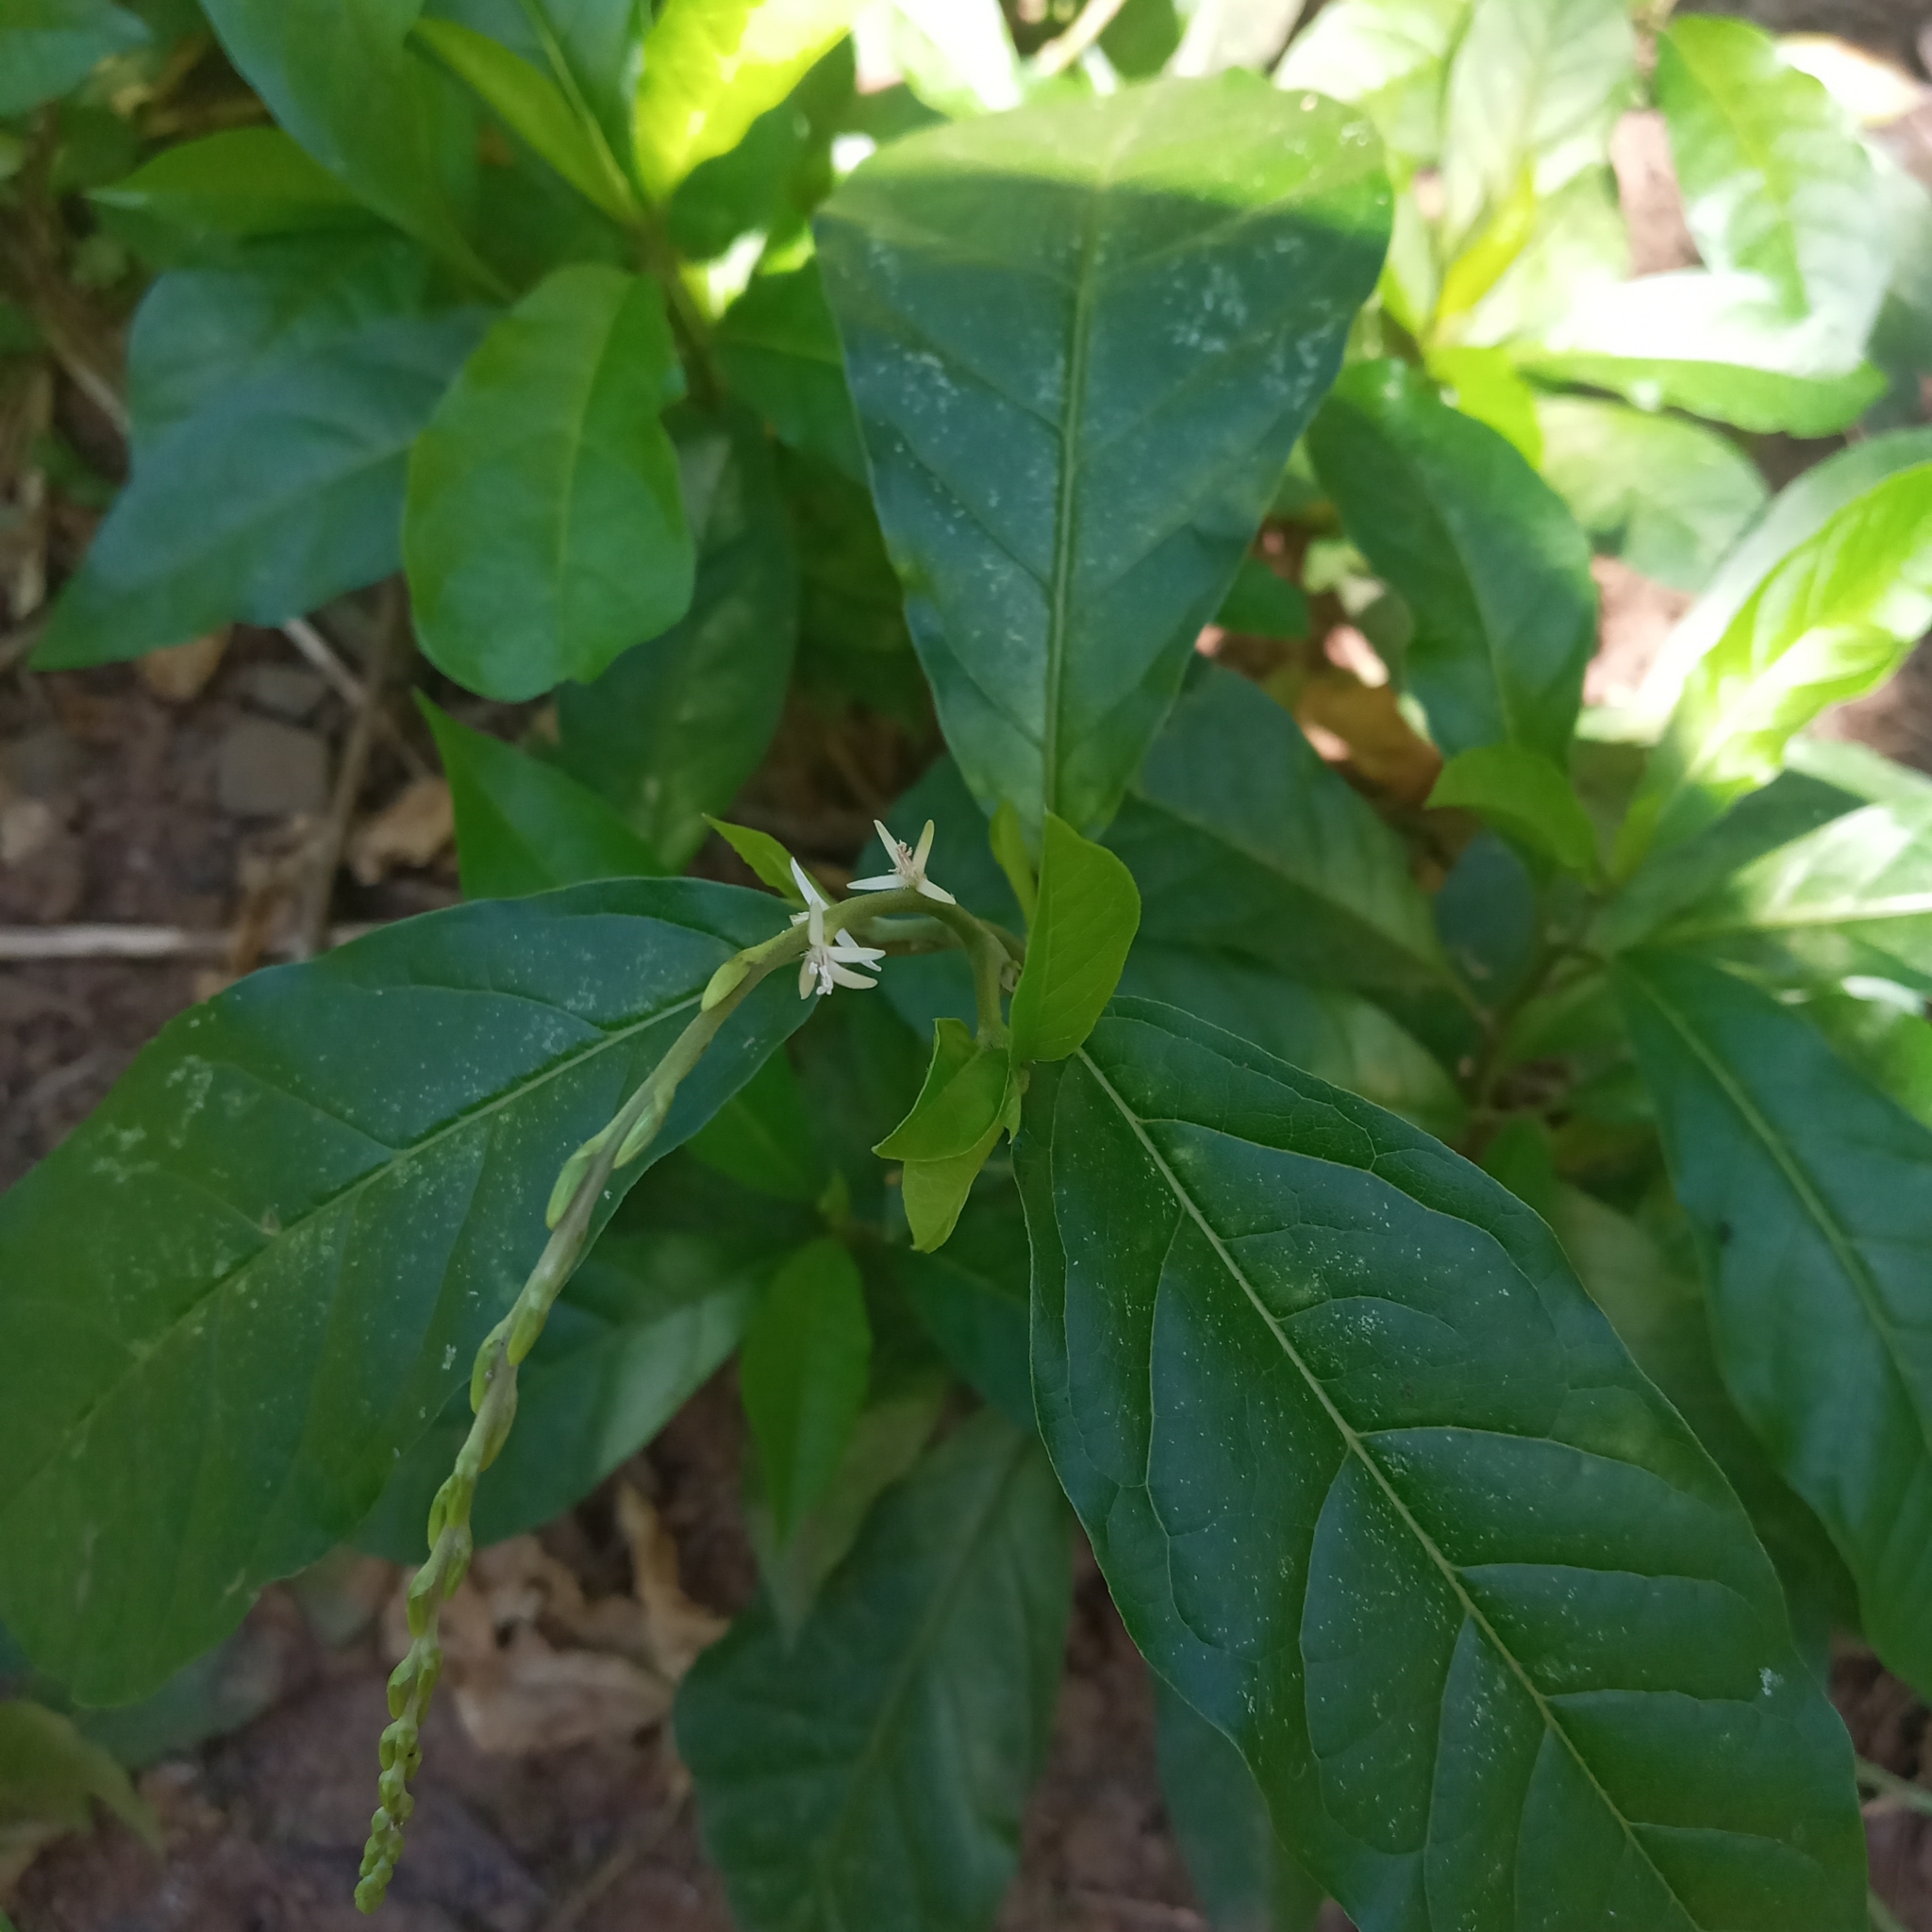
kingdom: Plantae
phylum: Tracheophyta
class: Magnoliopsida
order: Caryophyllales
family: Phytolaccaceae
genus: Petiveria
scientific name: Petiveria alliacea
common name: Garlicweed
